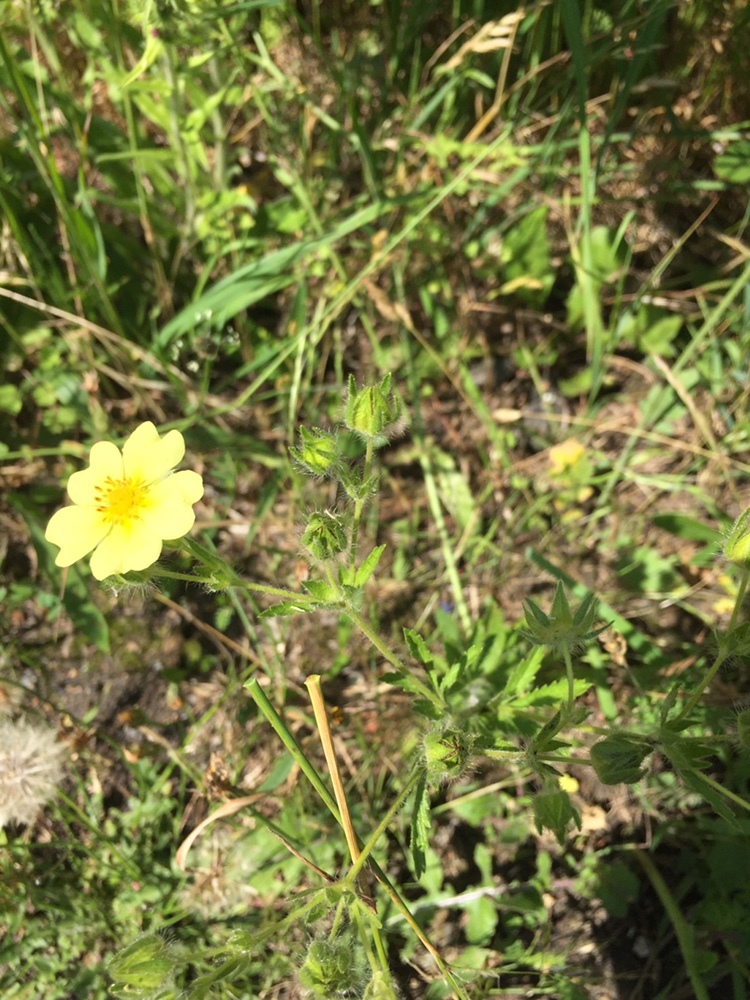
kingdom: Plantae
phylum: Tracheophyta
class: Magnoliopsida
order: Rosales
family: Rosaceae
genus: Potentilla
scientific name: Potentilla recta
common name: Sulphur cinquefoil
